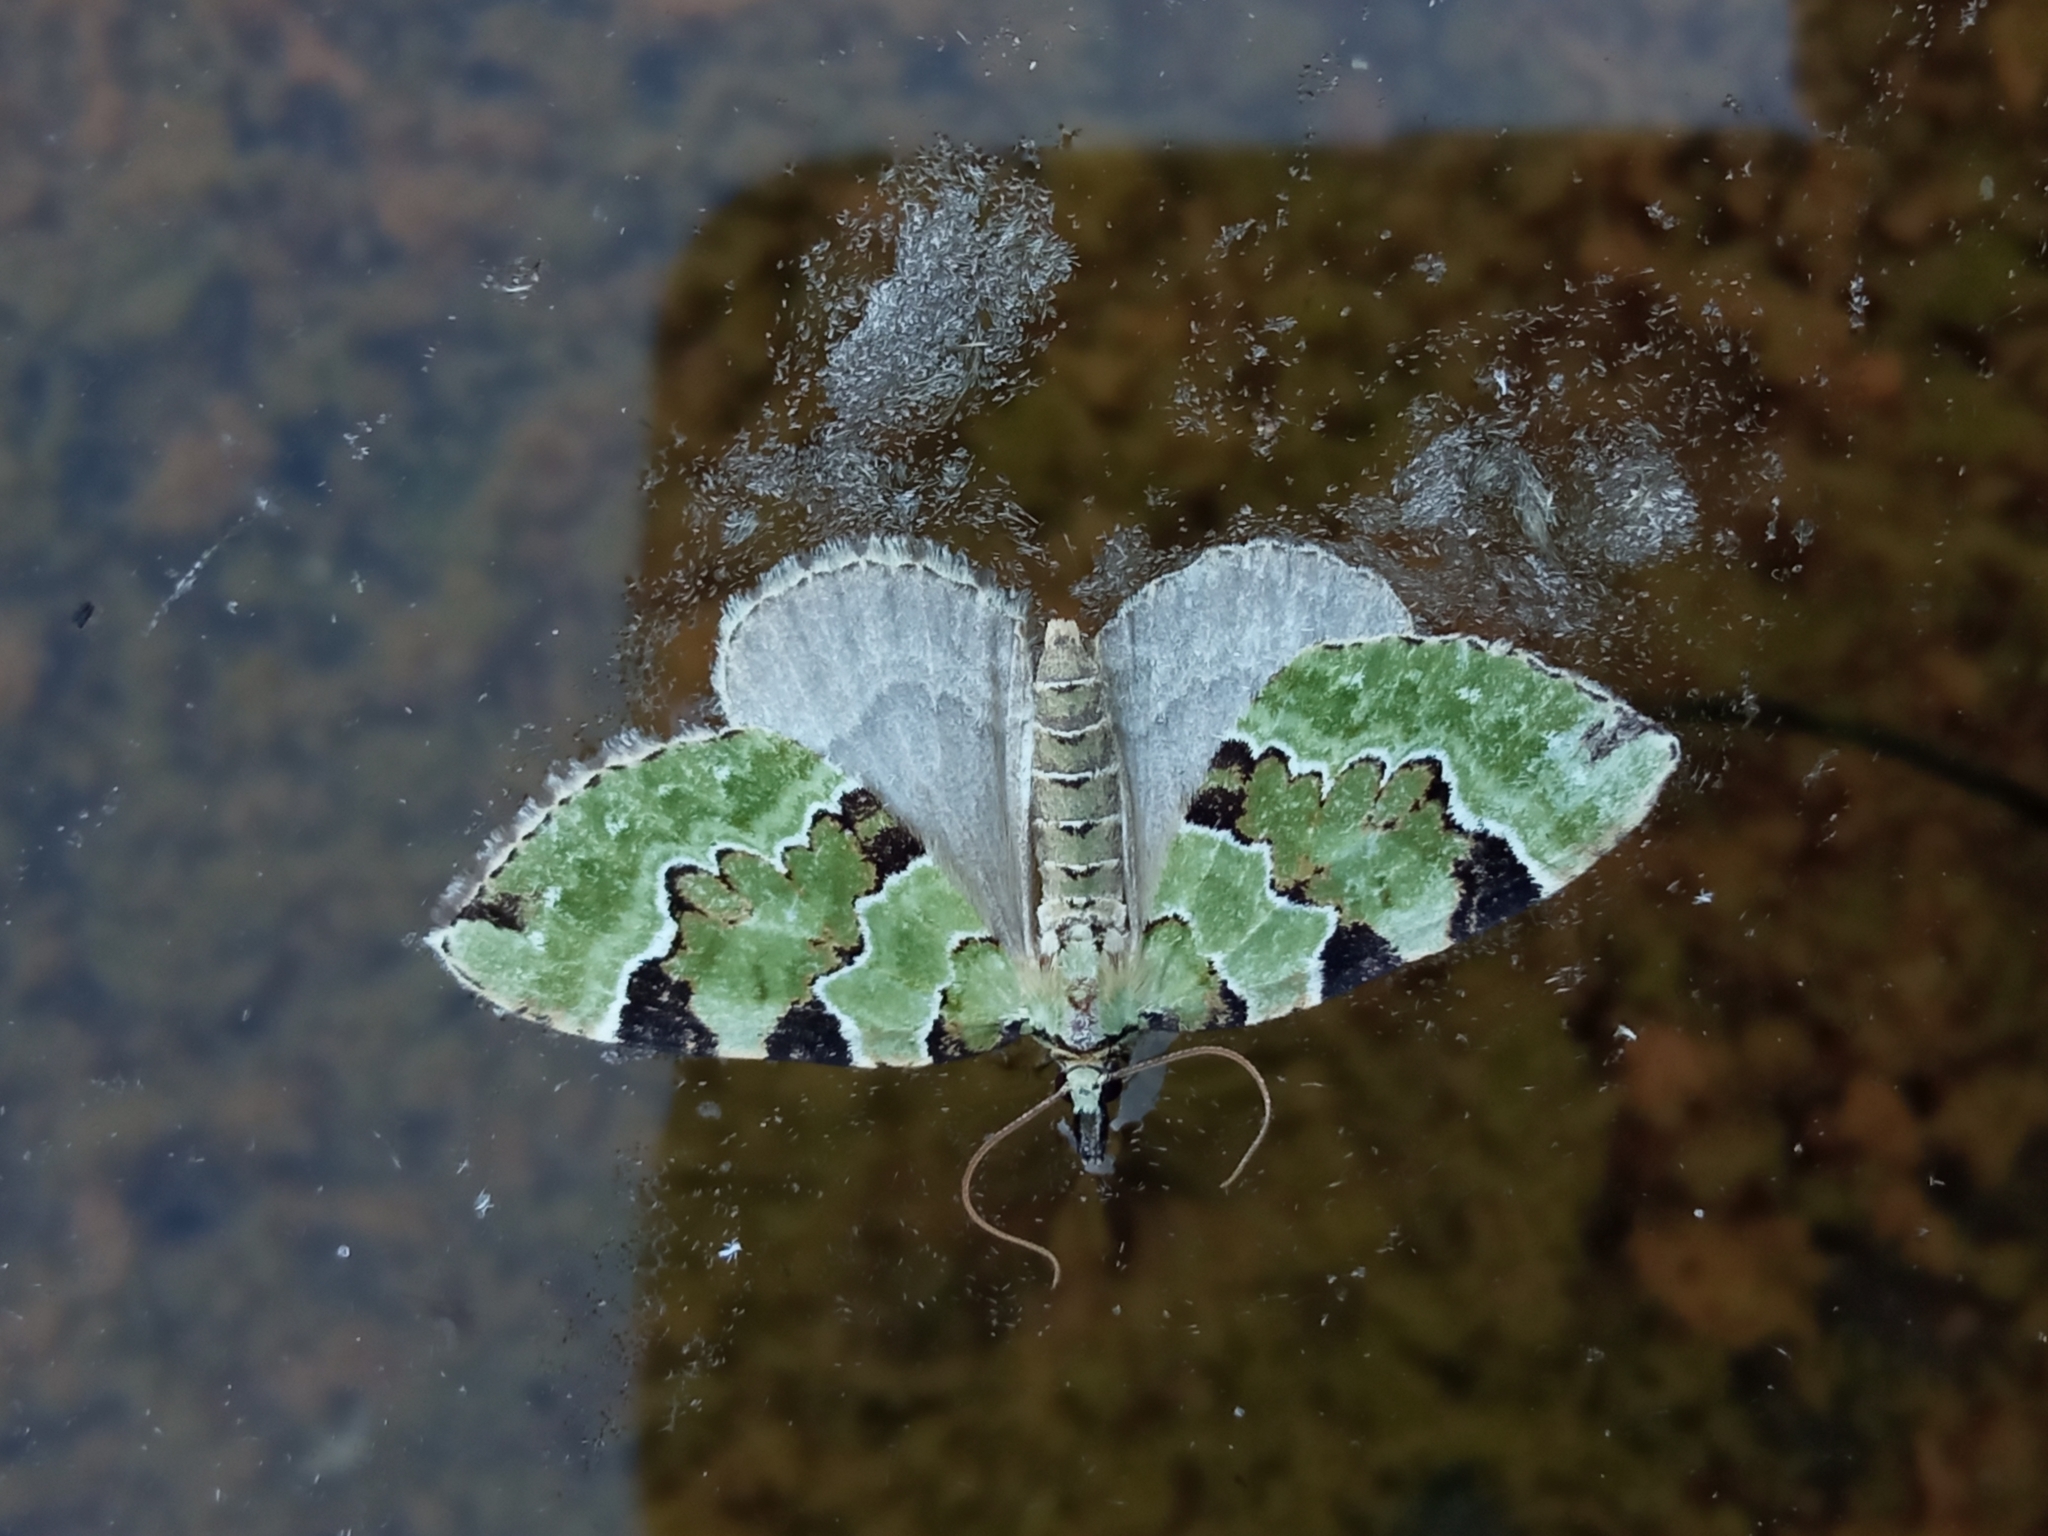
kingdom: Animalia
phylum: Arthropoda
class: Insecta
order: Lepidoptera
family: Geometridae
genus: Colostygia
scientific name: Colostygia pectinataria
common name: Green carpet
